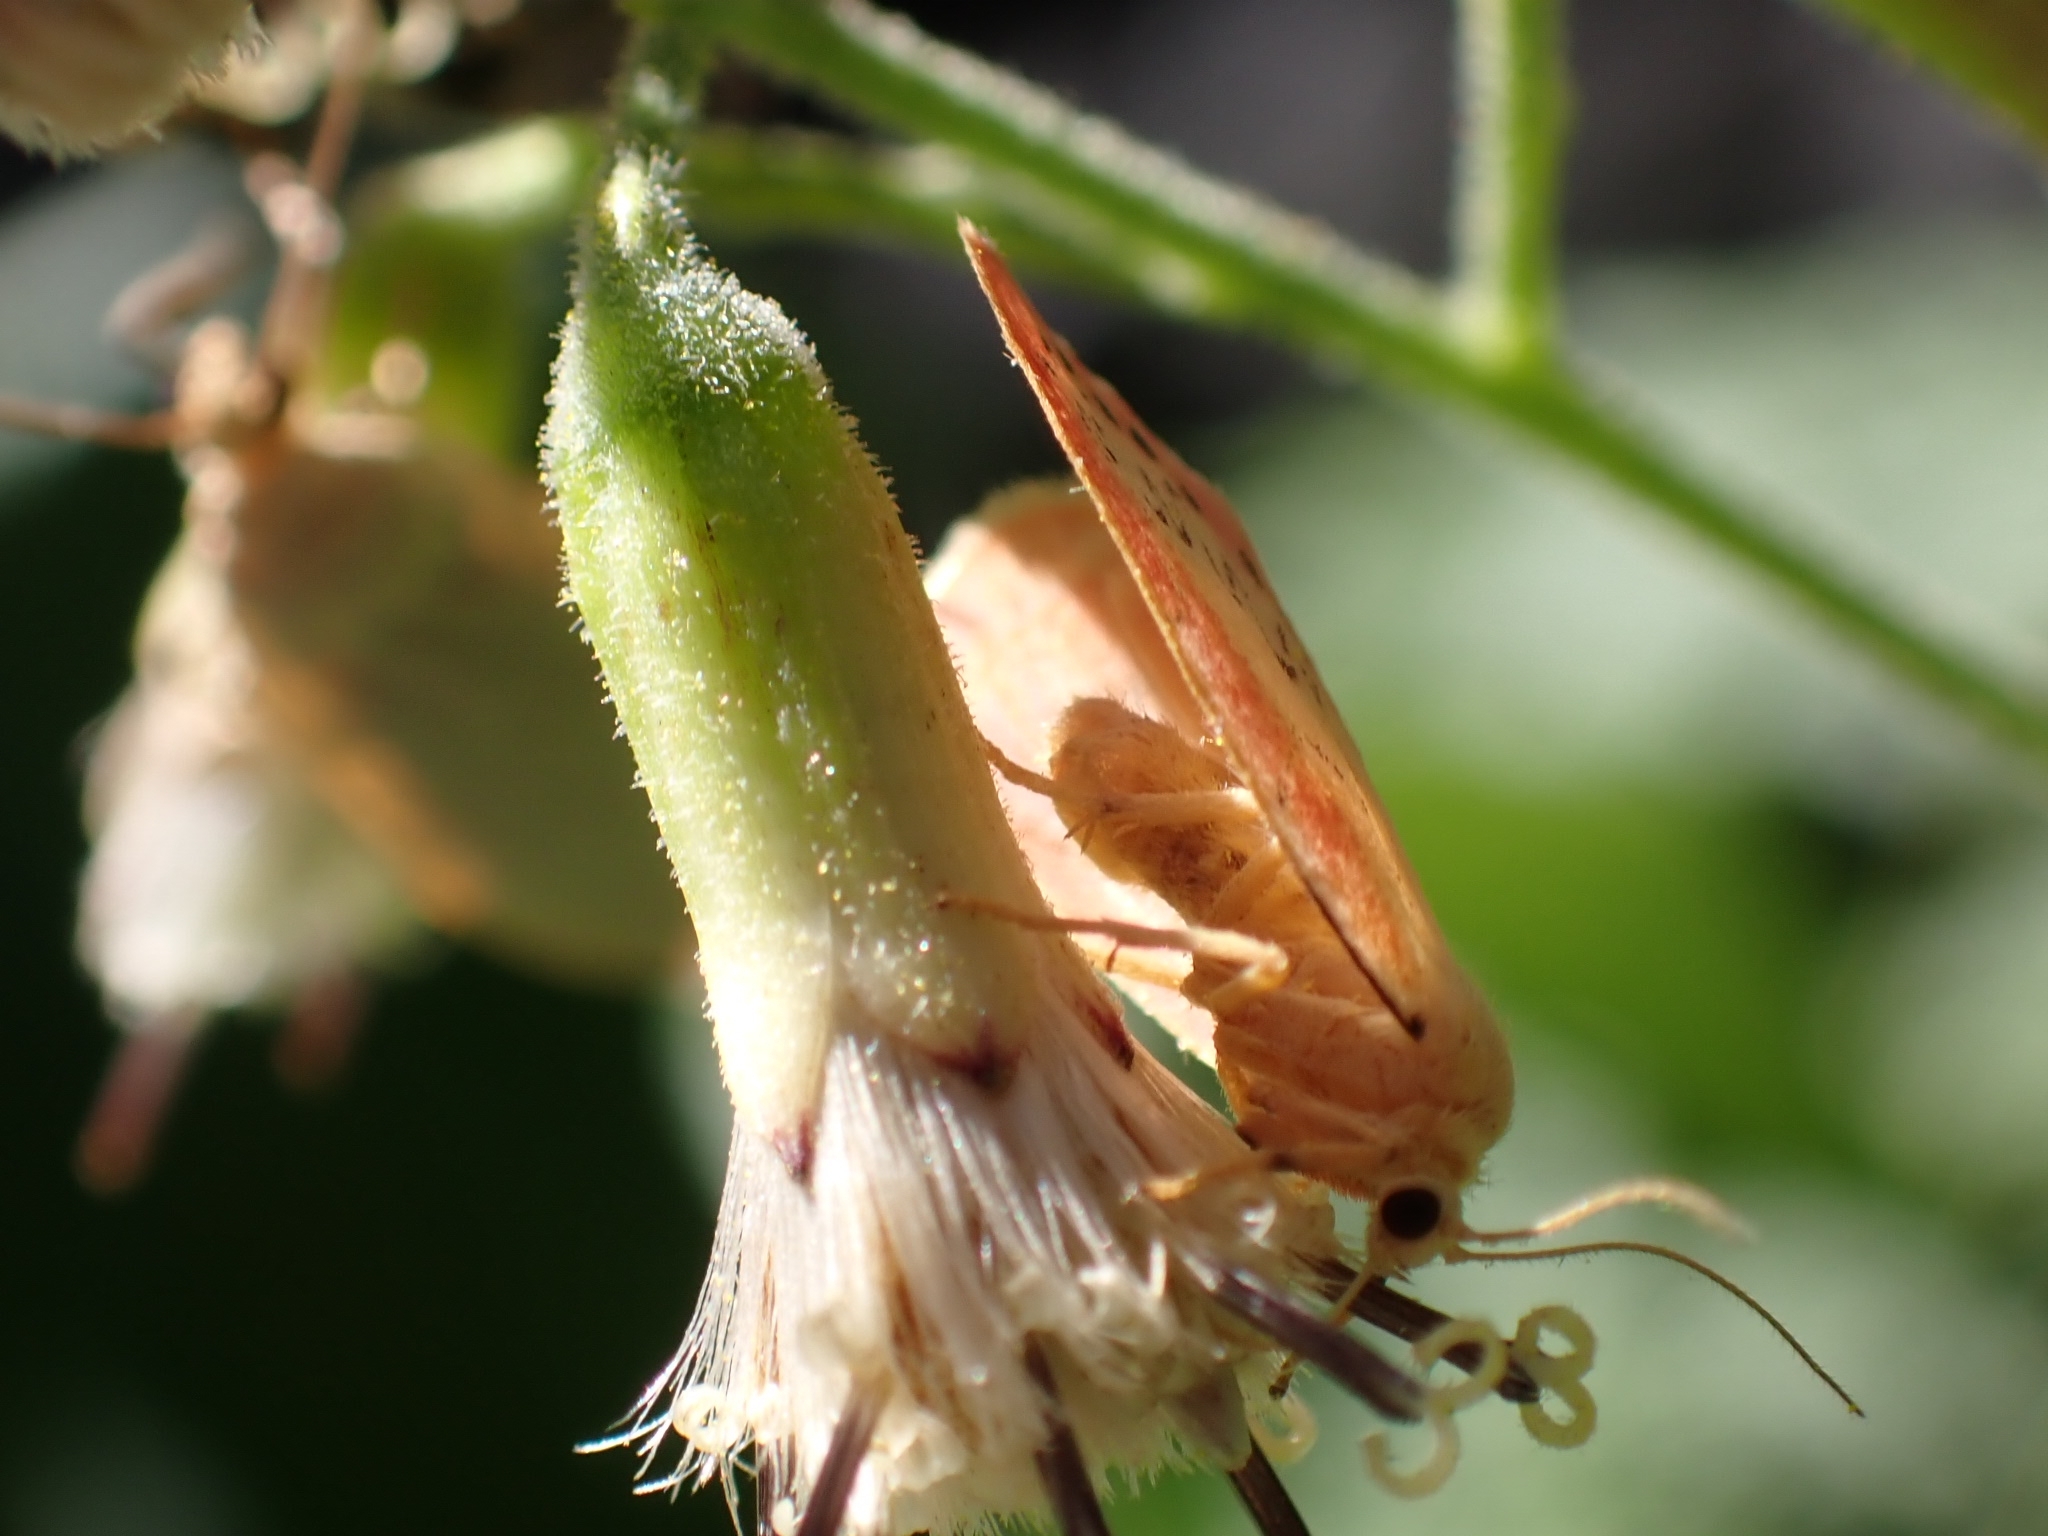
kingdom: Animalia
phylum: Arthropoda
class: Insecta
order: Lepidoptera
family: Erebidae
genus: Miltochrista
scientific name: Miltochrista miniata
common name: Rosy footman
